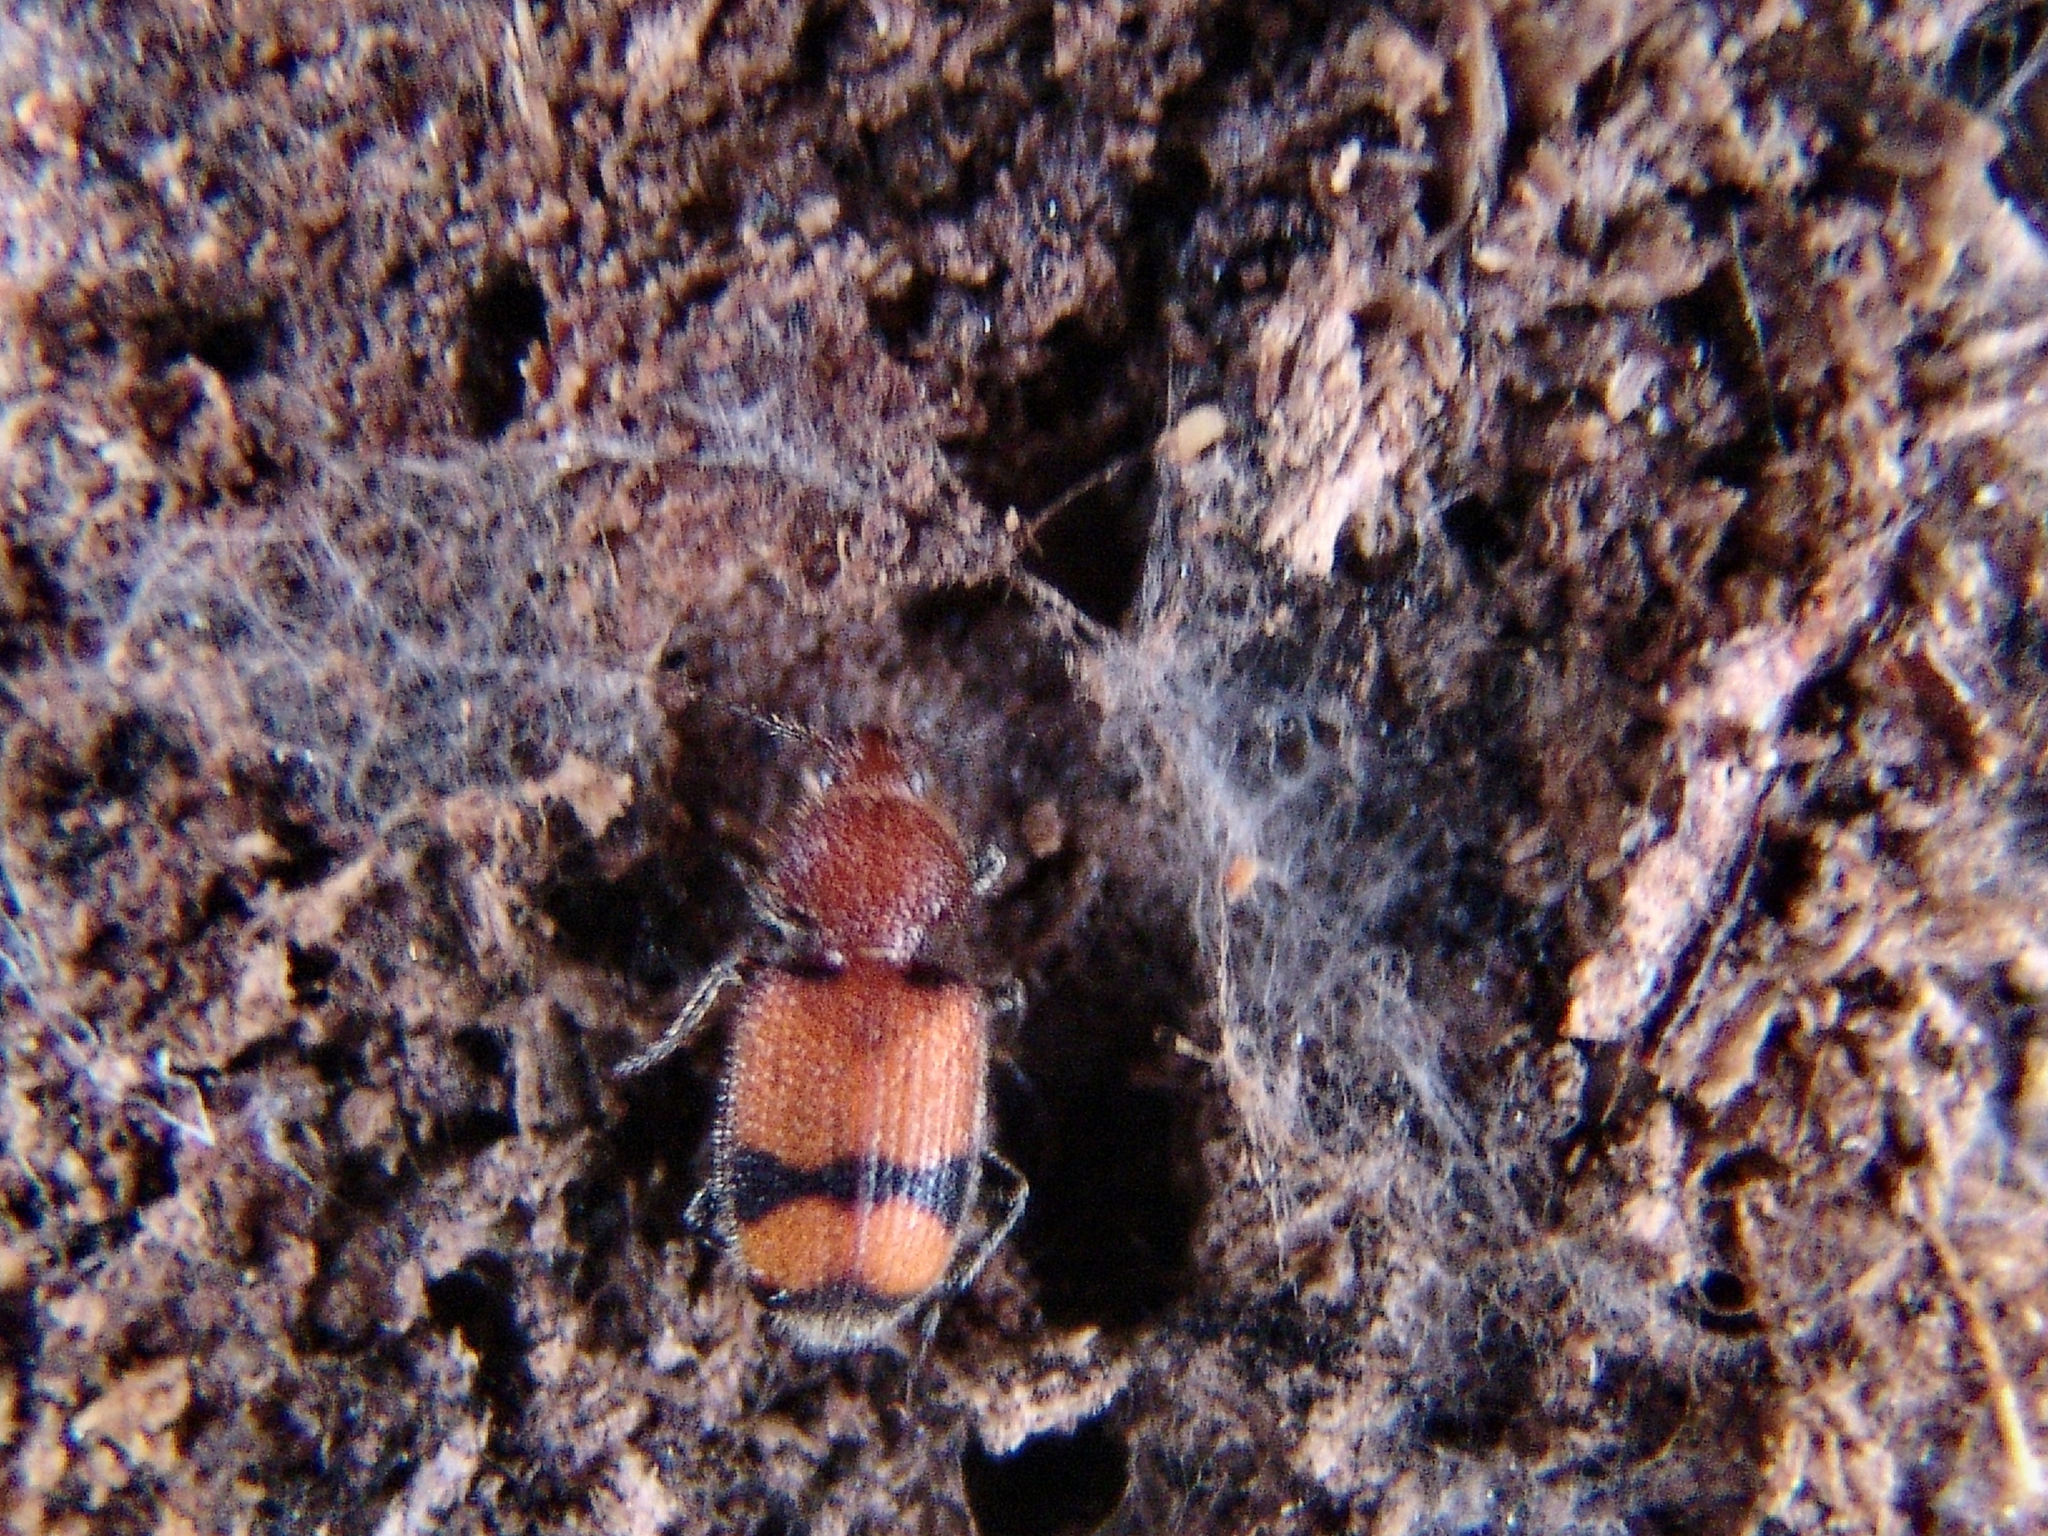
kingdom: Animalia
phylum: Arthropoda
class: Insecta
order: Coleoptera
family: Carabidae
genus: Panagaeus
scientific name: Panagaeus fasciatus
